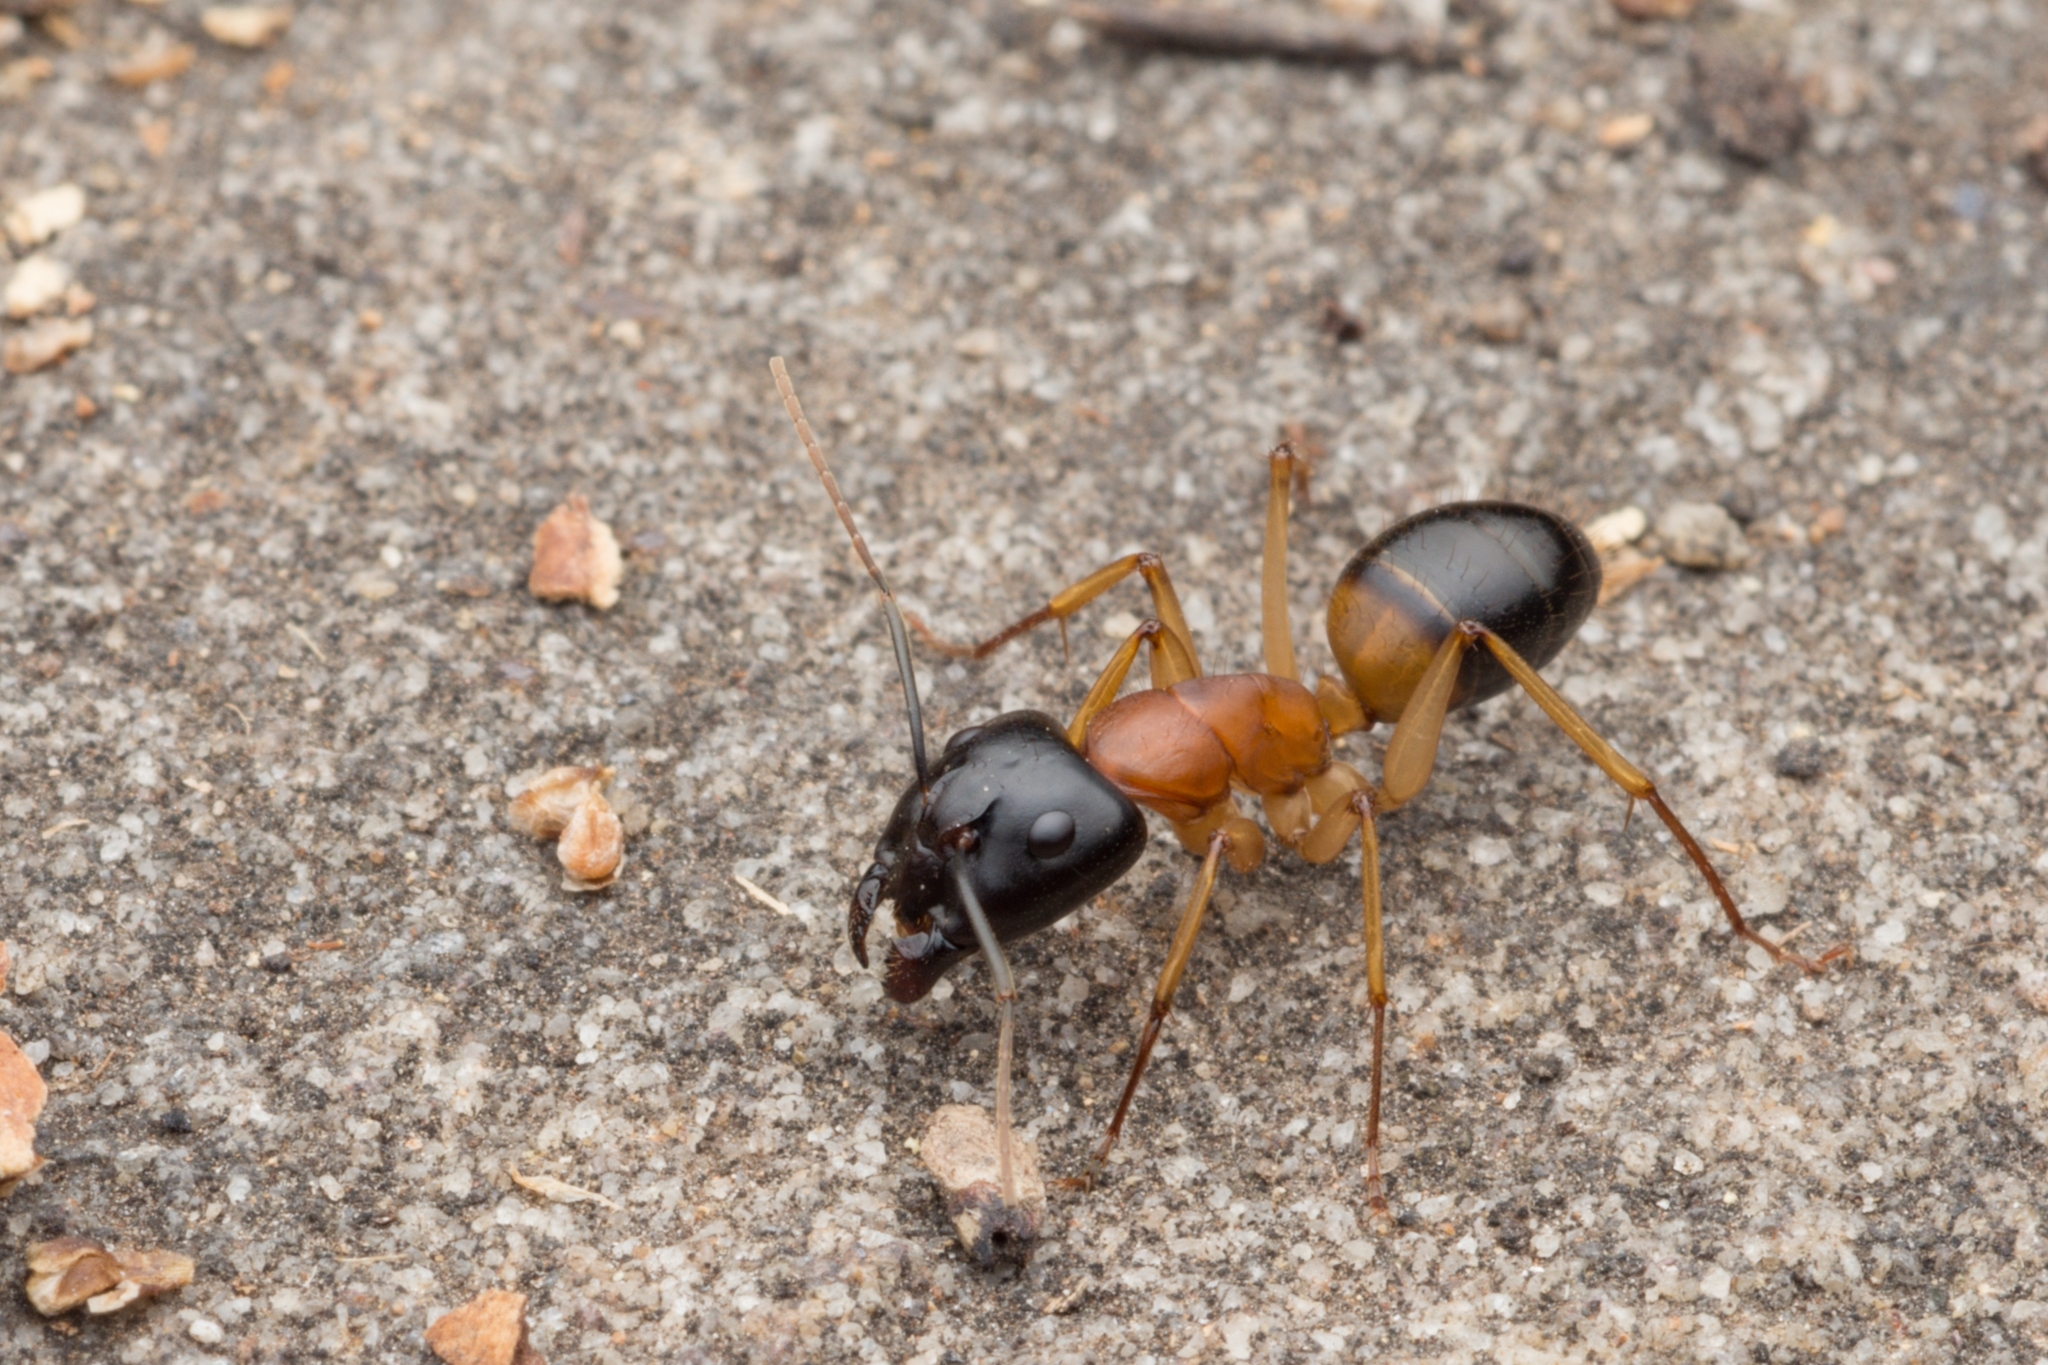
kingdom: Animalia
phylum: Arthropoda
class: Insecta
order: Hymenoptera
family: Formicidae
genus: Camponotus
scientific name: Camponotus consobrinus
